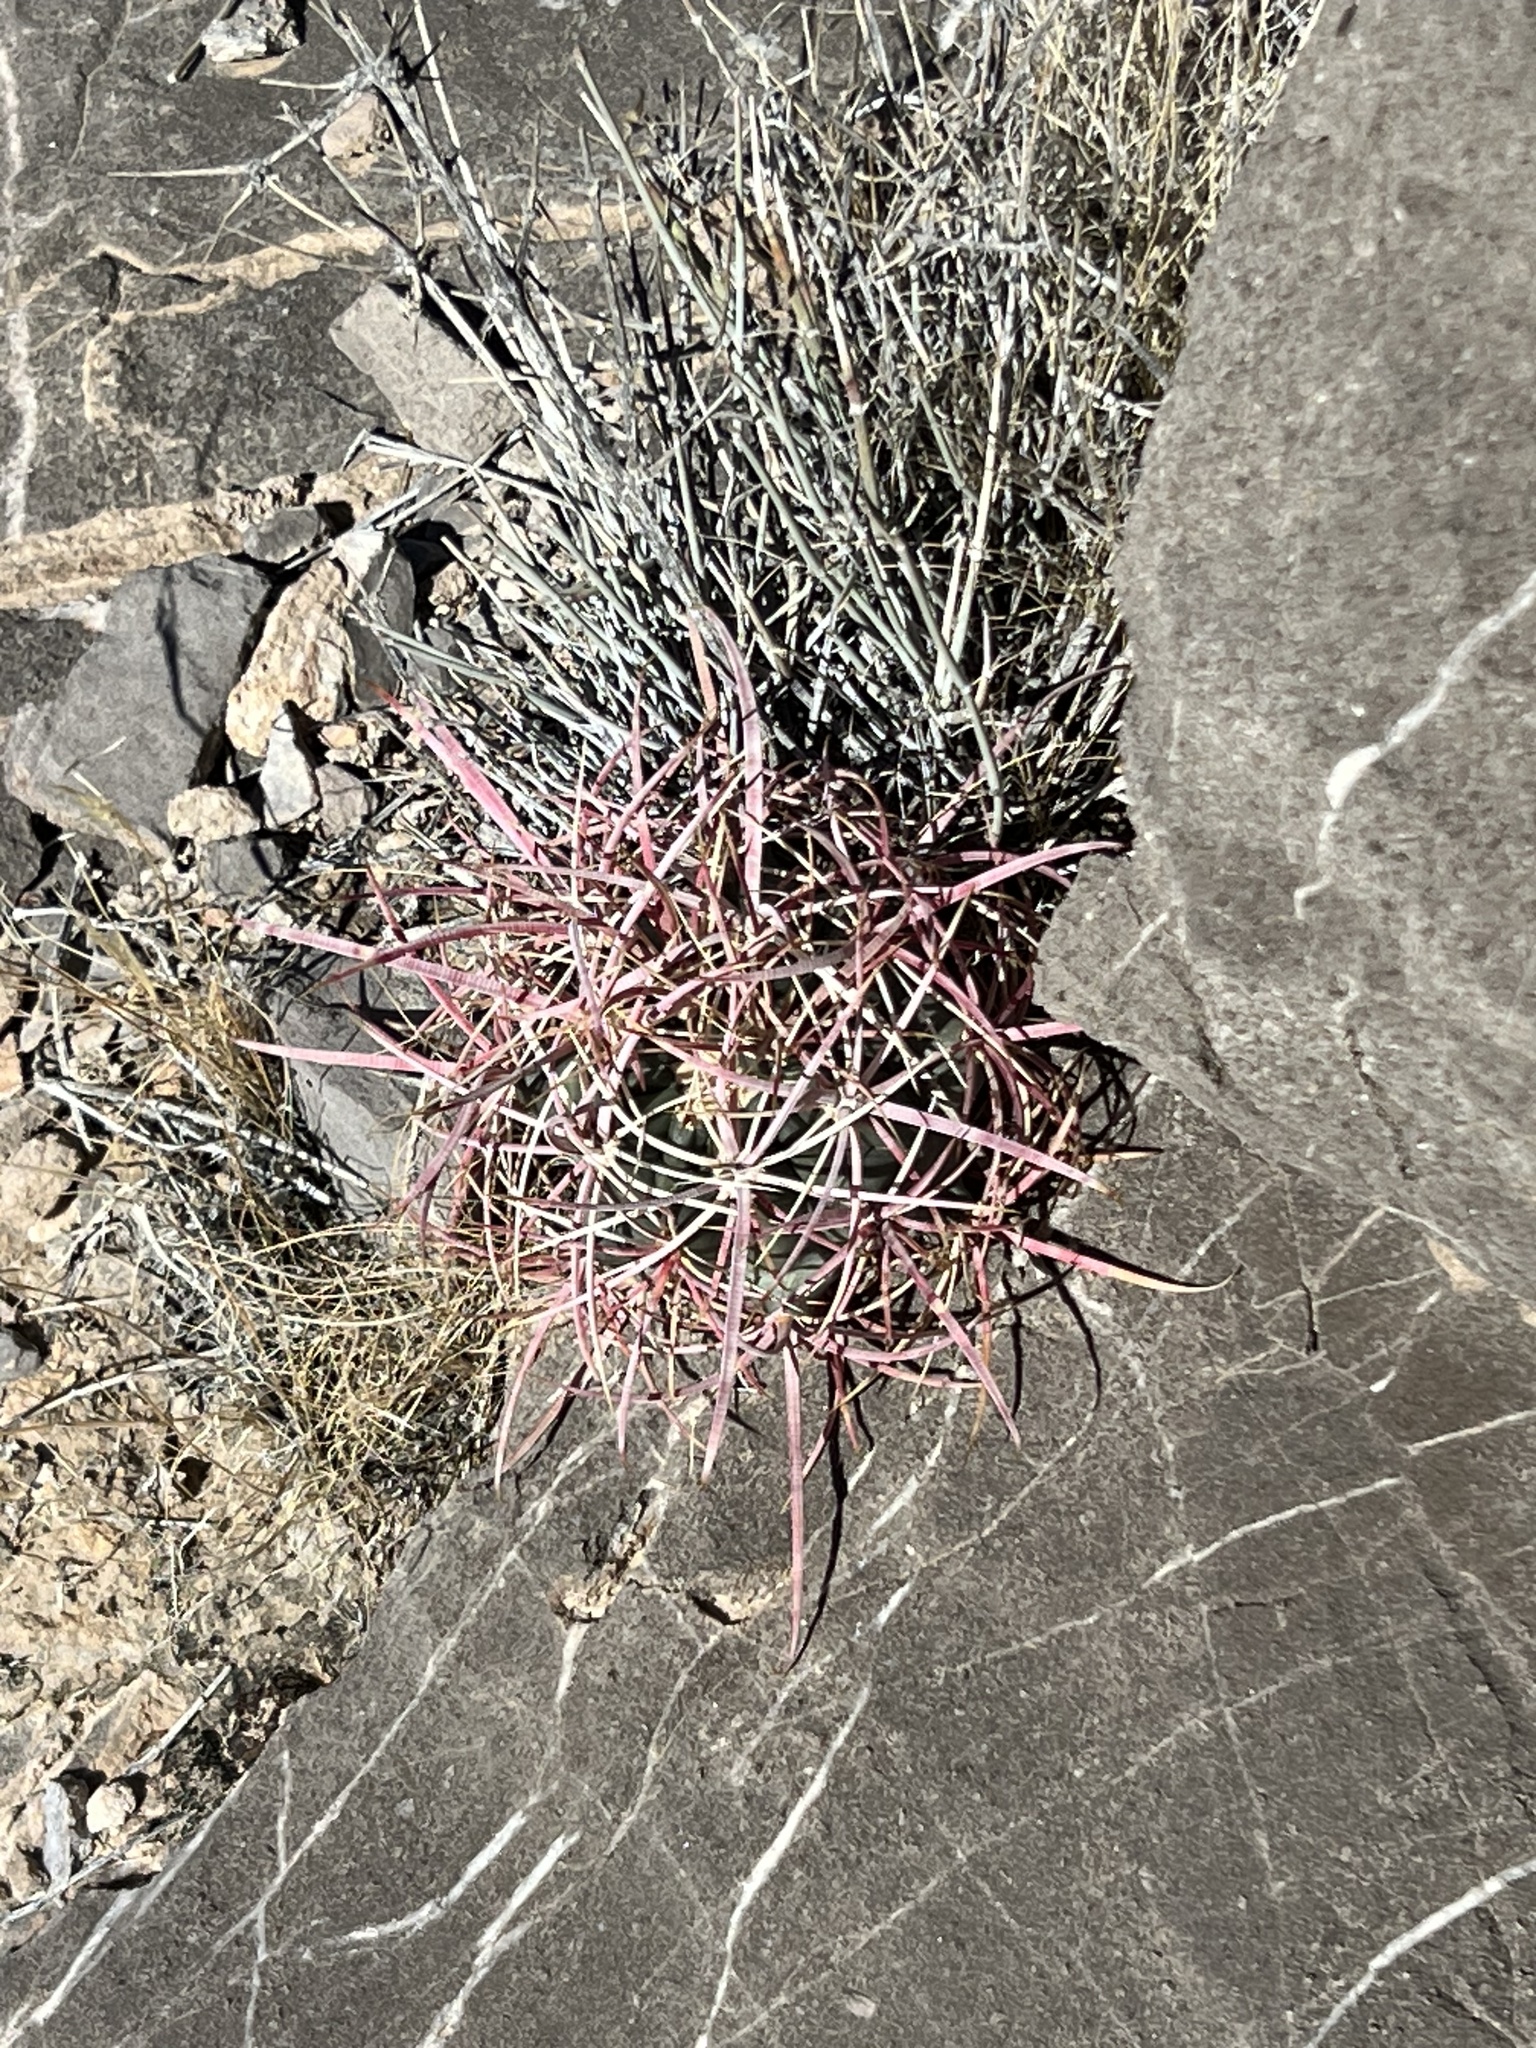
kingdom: Plantae
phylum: Tracheophyta
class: Magnoliopsida
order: Caryophyllales
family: Cactaceae
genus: Ferocactus
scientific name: Ferocactus cylindraceus
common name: California barrel cactus
